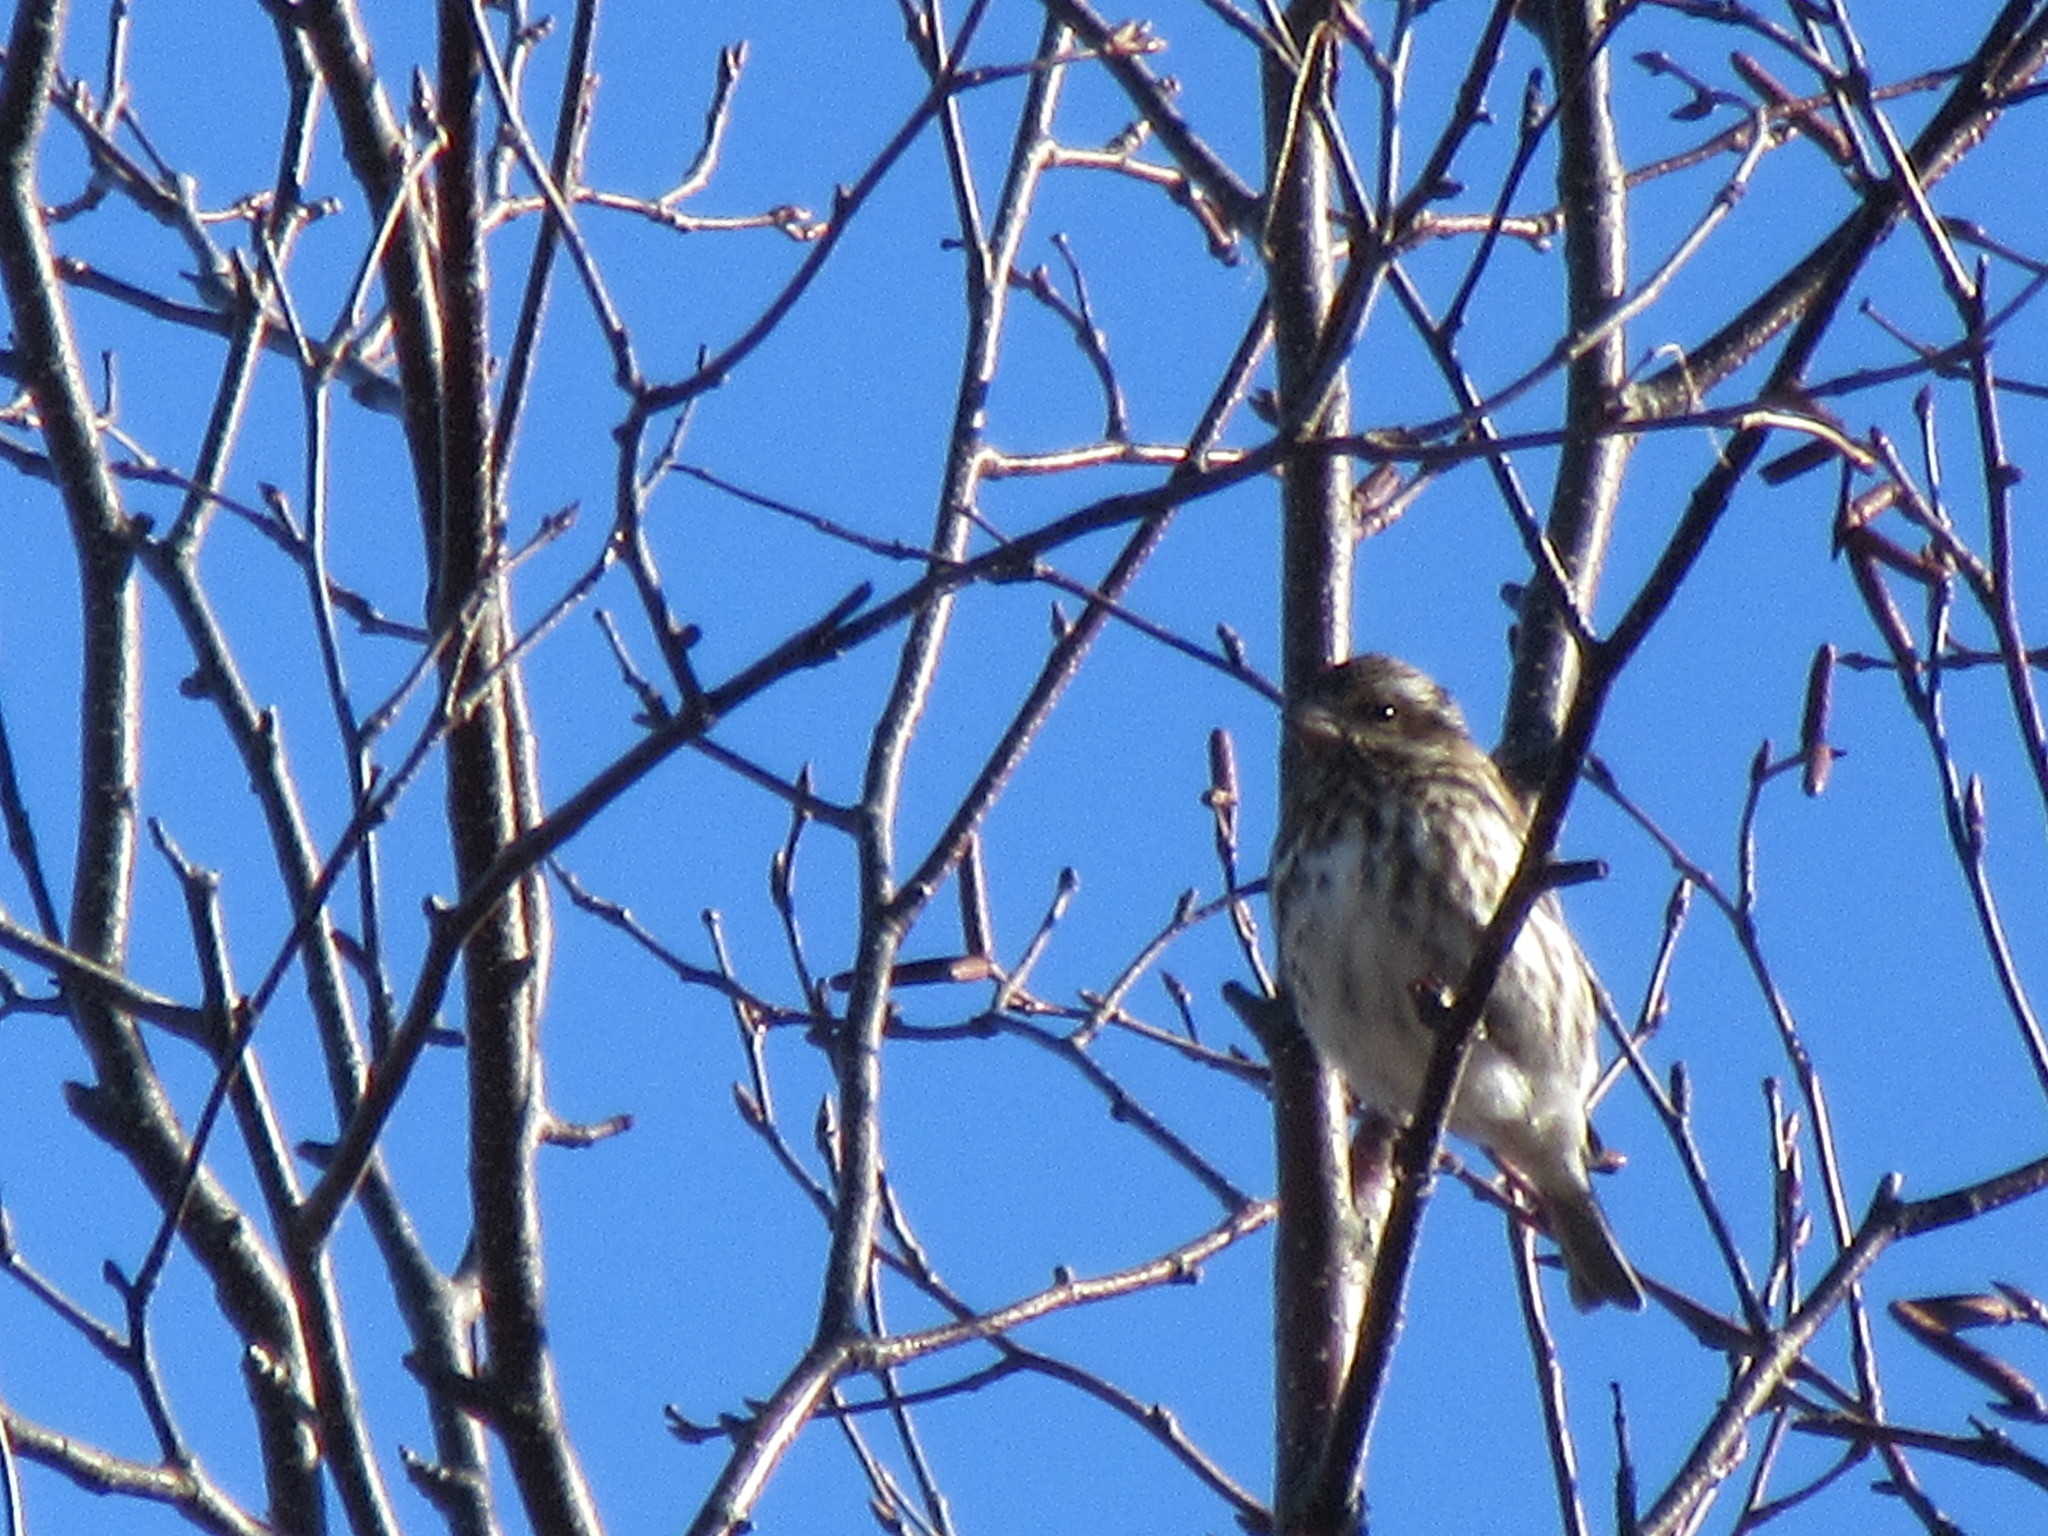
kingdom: Animalia
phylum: Chordata
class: Aves
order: Passeriformes
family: Fringillidae
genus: Haemorhous
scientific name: Haemorhous purpureus
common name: Purple finch
